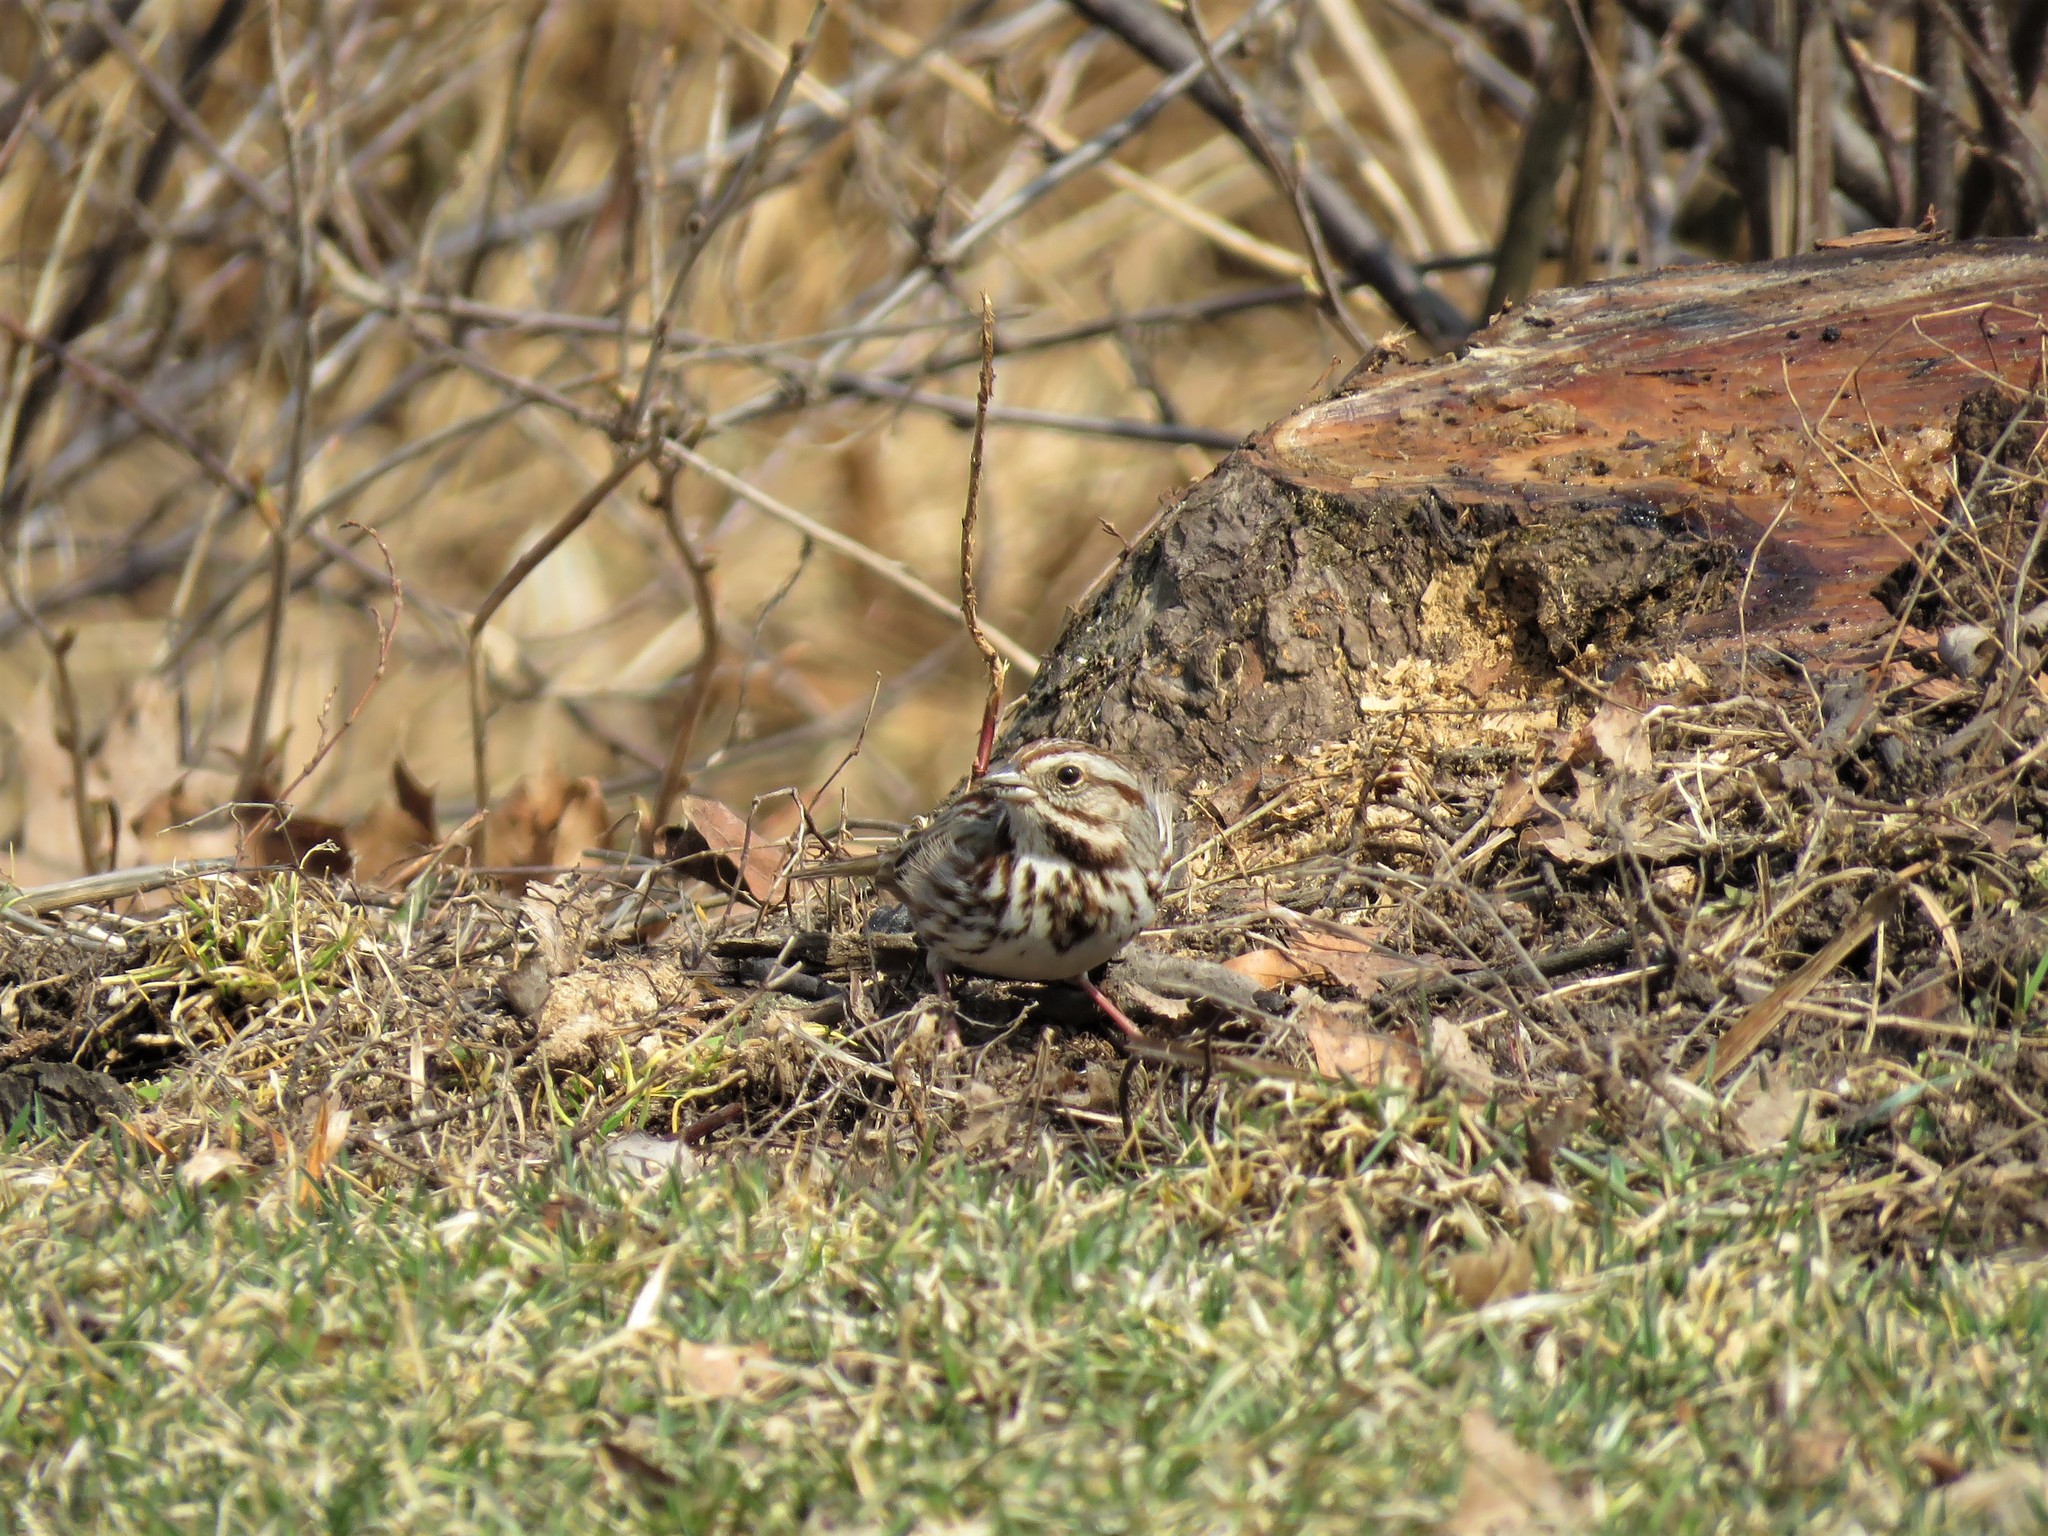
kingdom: Animalia
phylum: Chordata
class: Aves
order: Passeriformes
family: Passerellidae
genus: Melospiza
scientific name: Melospiza melodia
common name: Song sparrow
